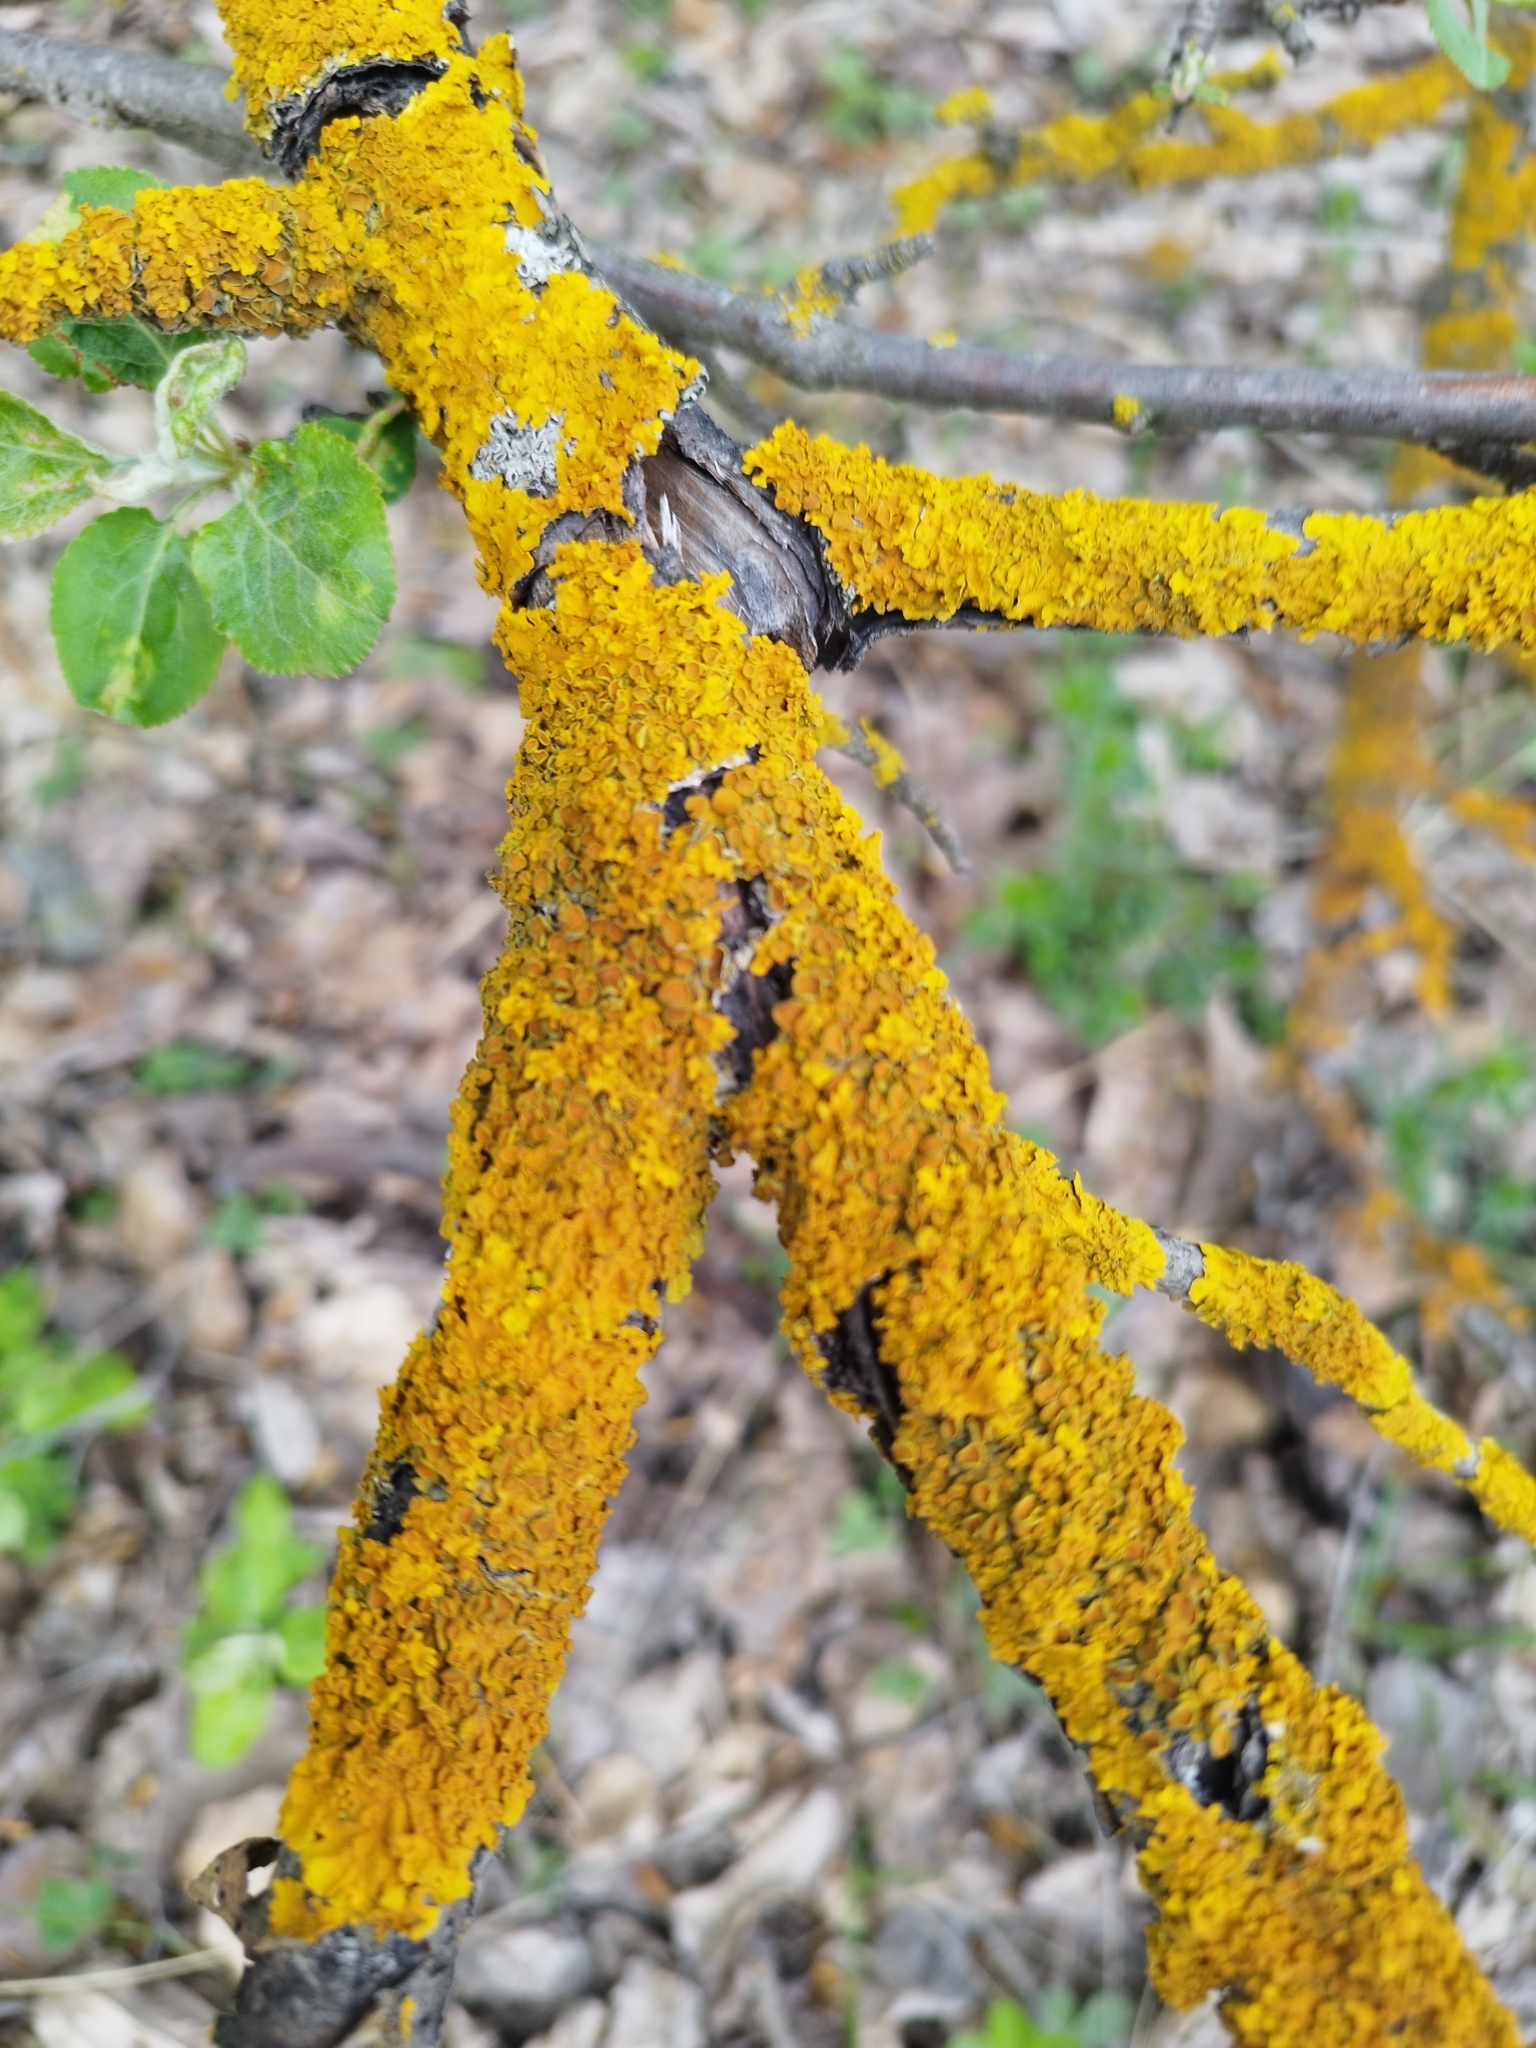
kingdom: Fungi
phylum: Ascomycota
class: Lecanoromycetes
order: Teloschistales
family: Teloschistaceae
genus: Xanthoria
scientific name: Xanthoria parietina
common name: Common orange lichen
